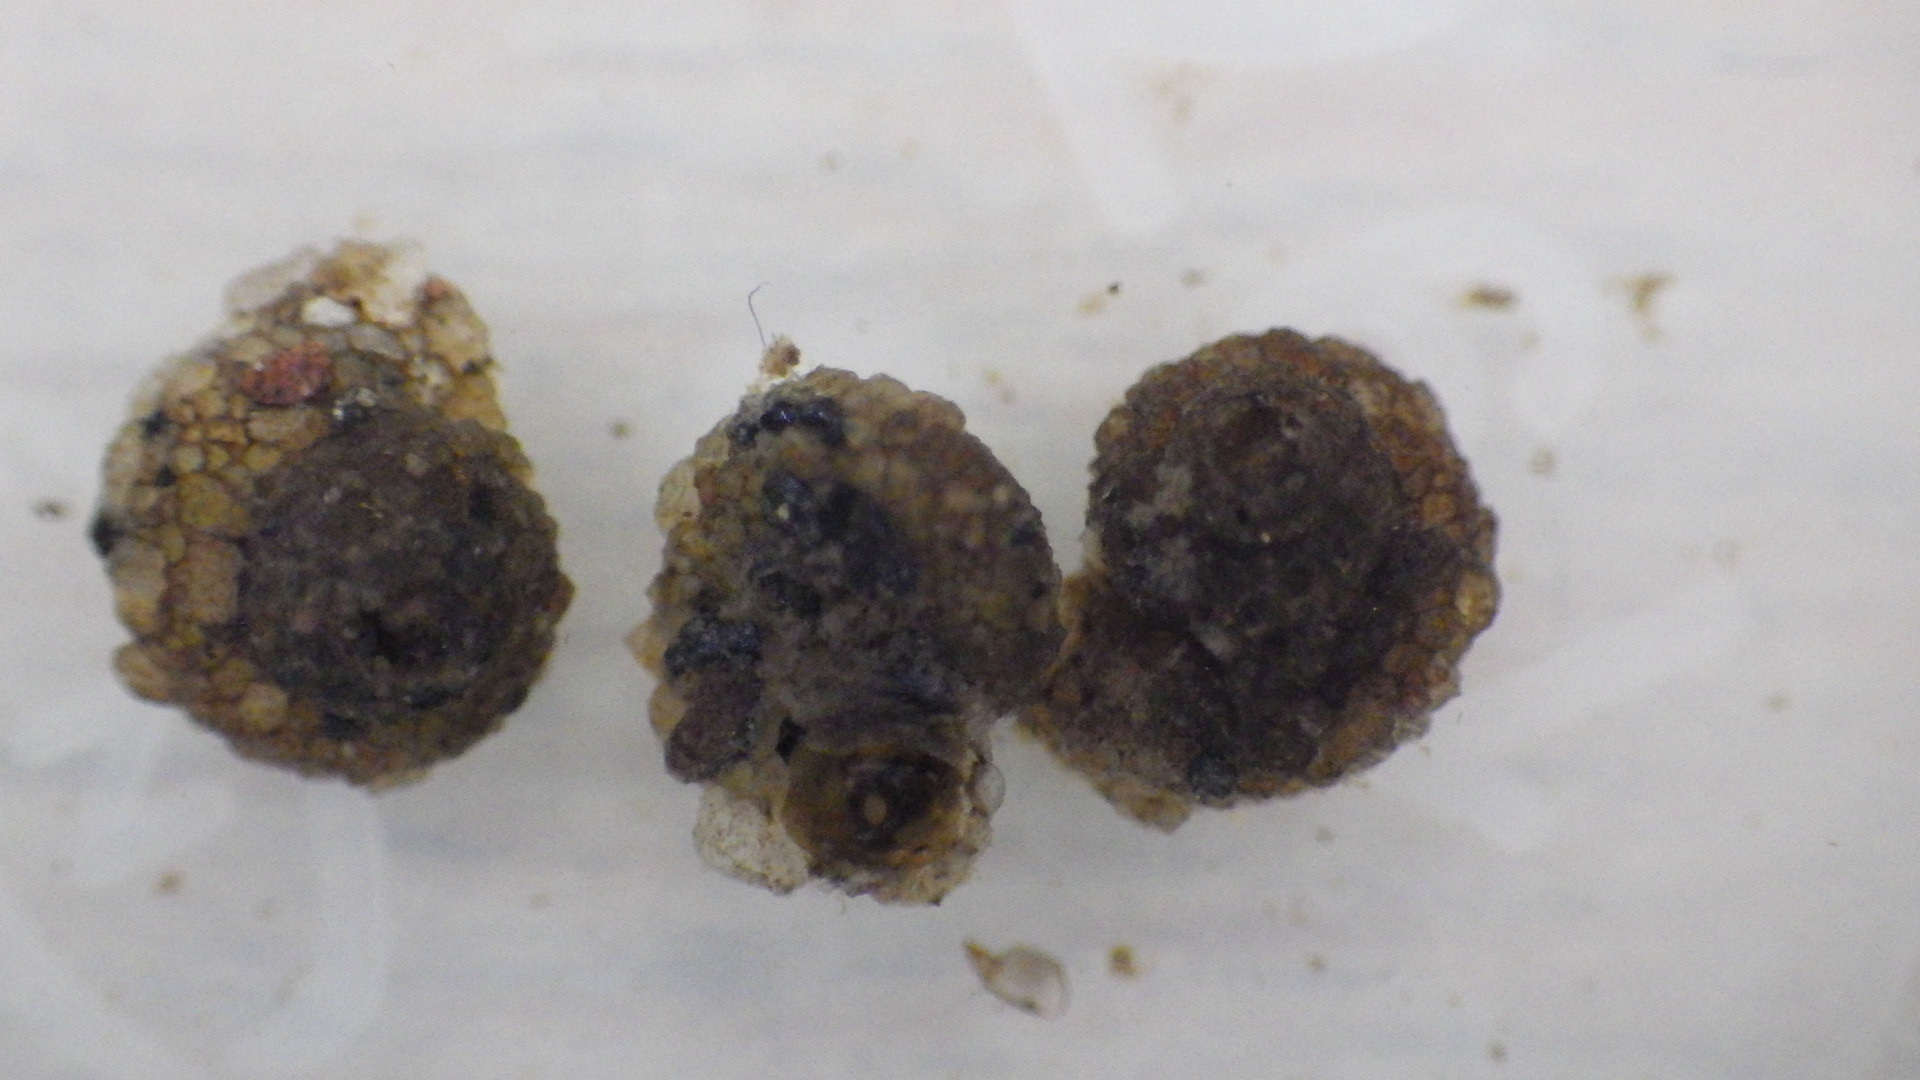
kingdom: Animalia
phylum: Arthropoda
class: Insecta
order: Trichoptera
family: Helicopsychidae
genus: Helicopsyche
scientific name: Helicopsyche borealis
